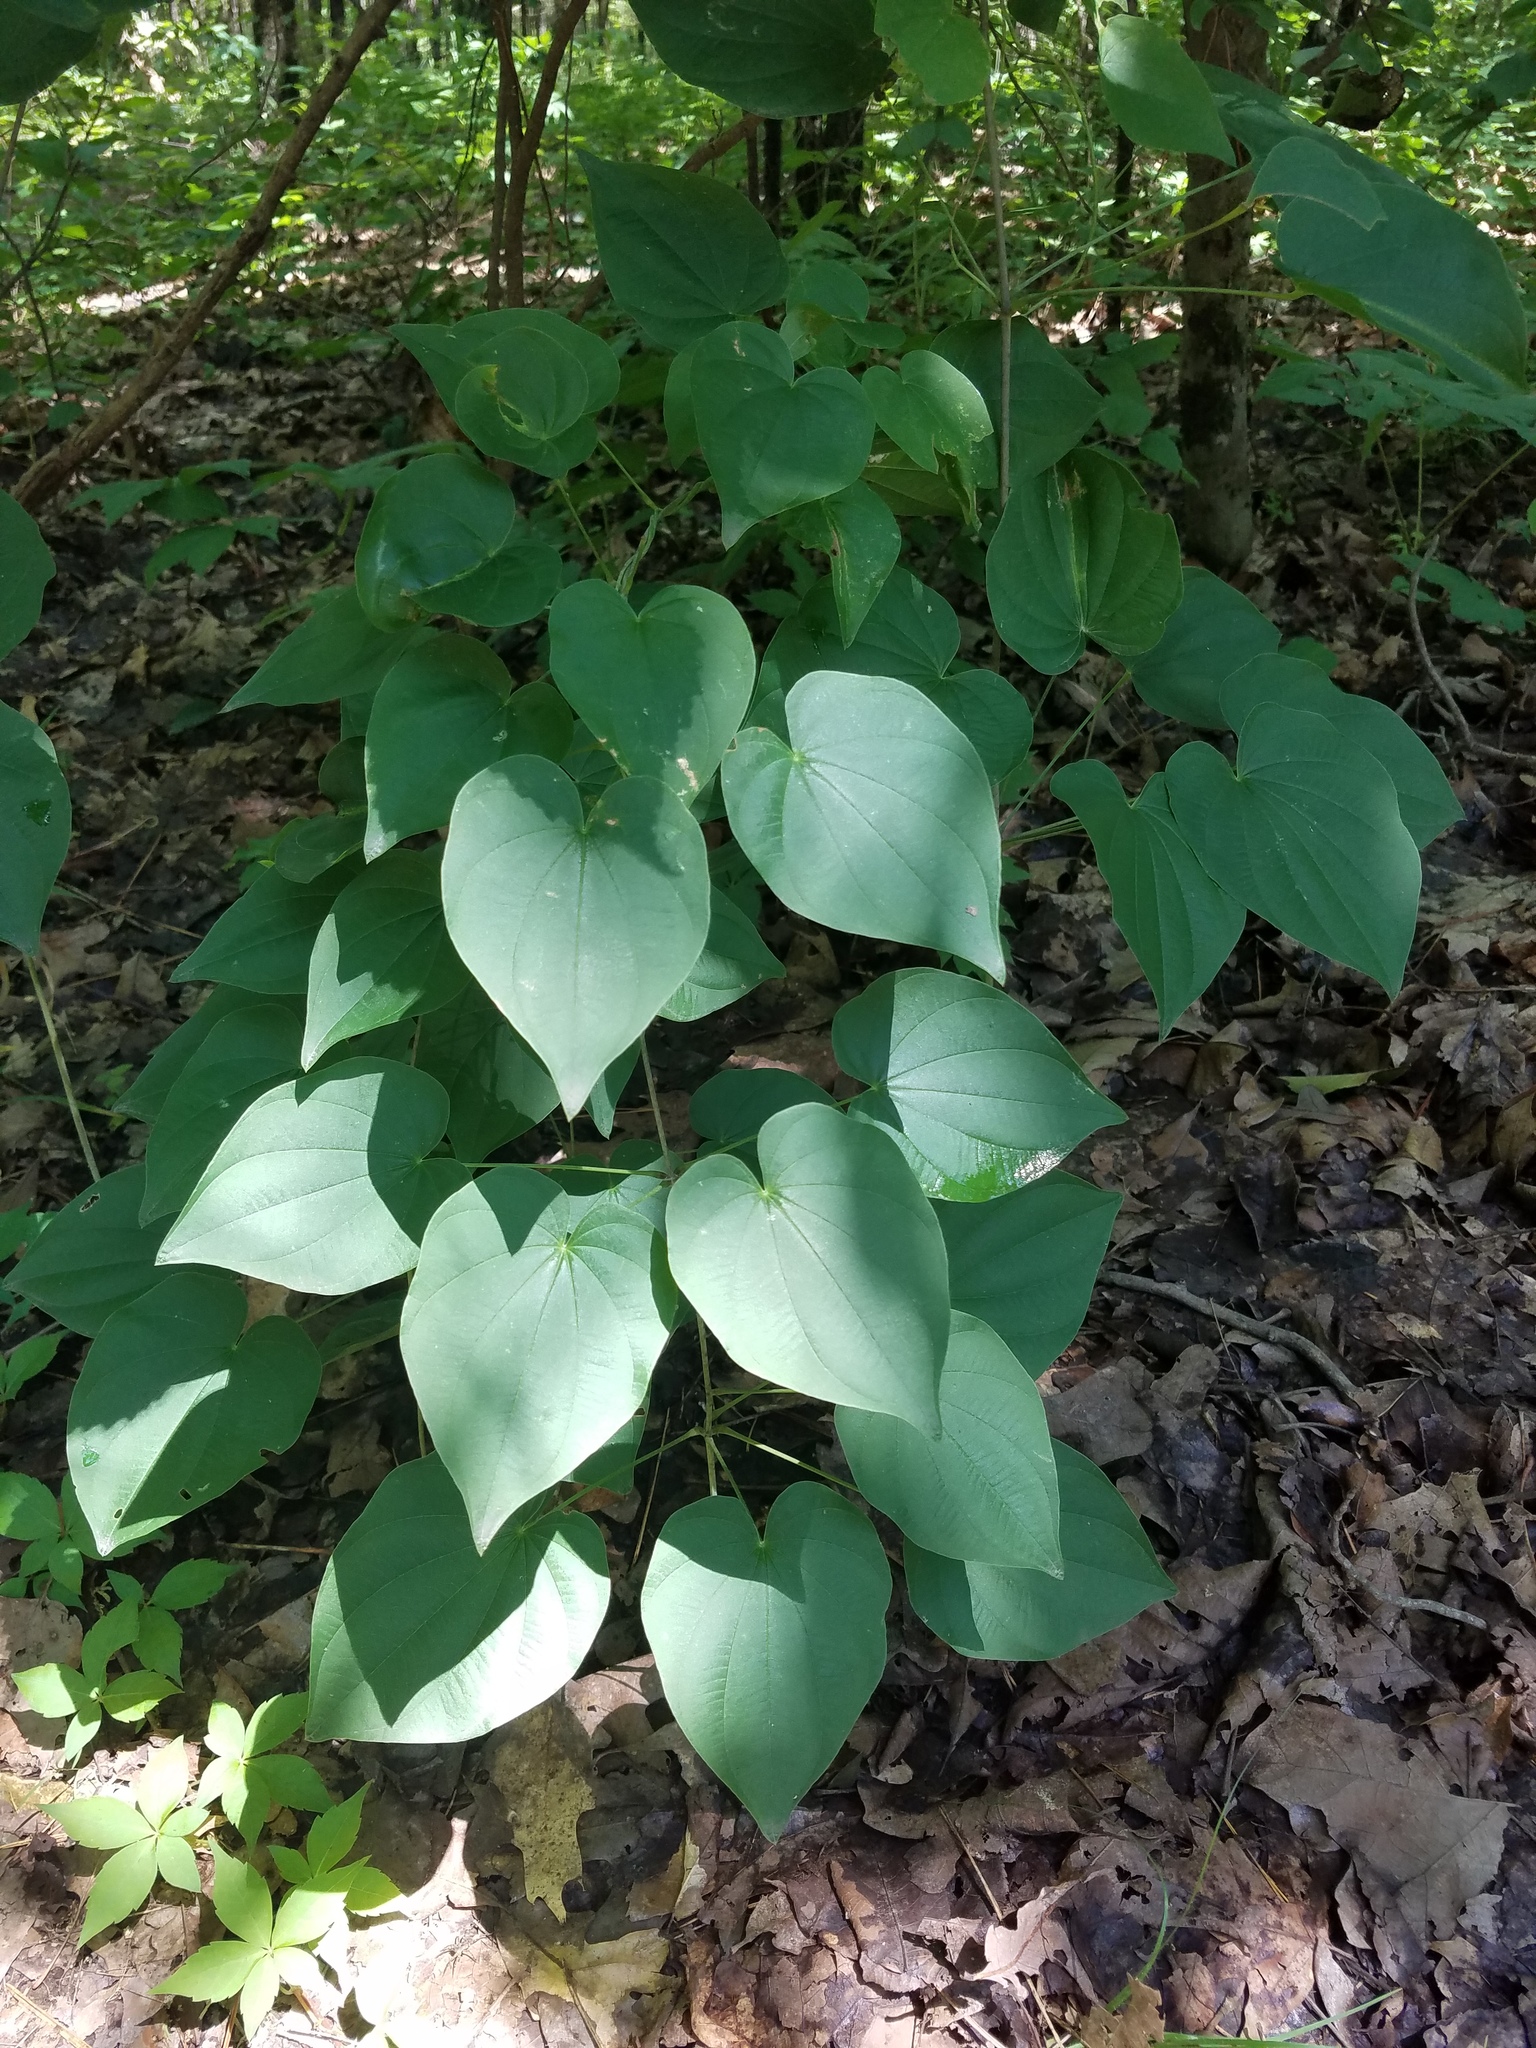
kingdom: Plantae
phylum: Tracheophyta
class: Liliopsida
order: Dioscoreales
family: Dioscoreaceae
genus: Dioscorea
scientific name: Dioscorea villosa
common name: Wild yam
